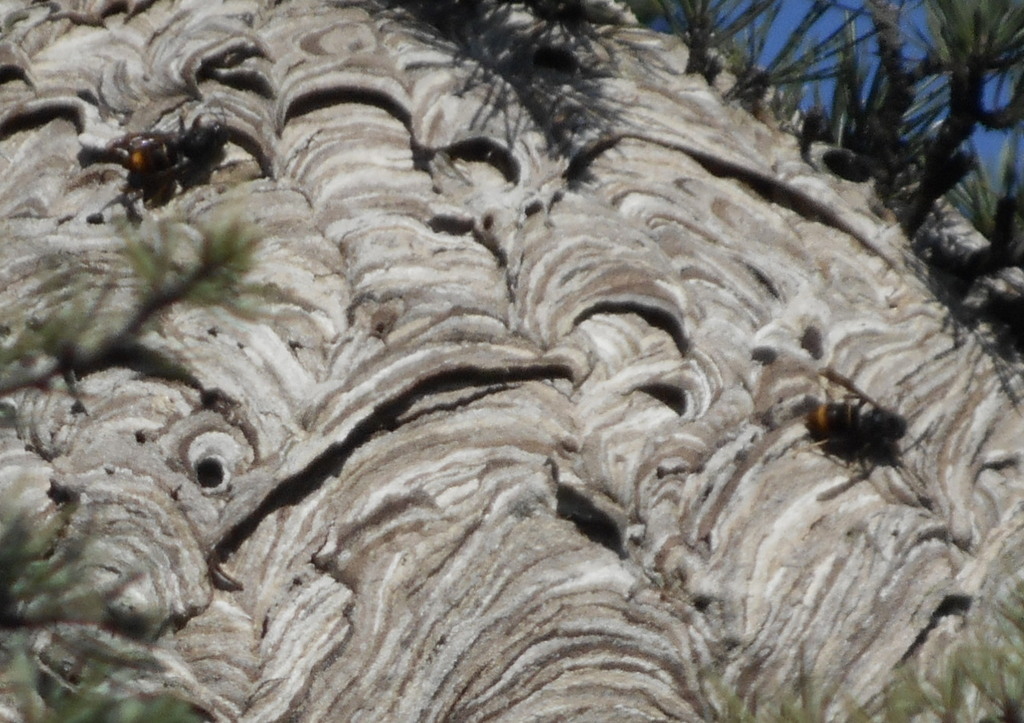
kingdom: Animalia
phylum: Arthropoda
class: Insecta
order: Hymenoptera
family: Vespidae
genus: Vespa
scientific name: Vespa velutina
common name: Asian hornet
